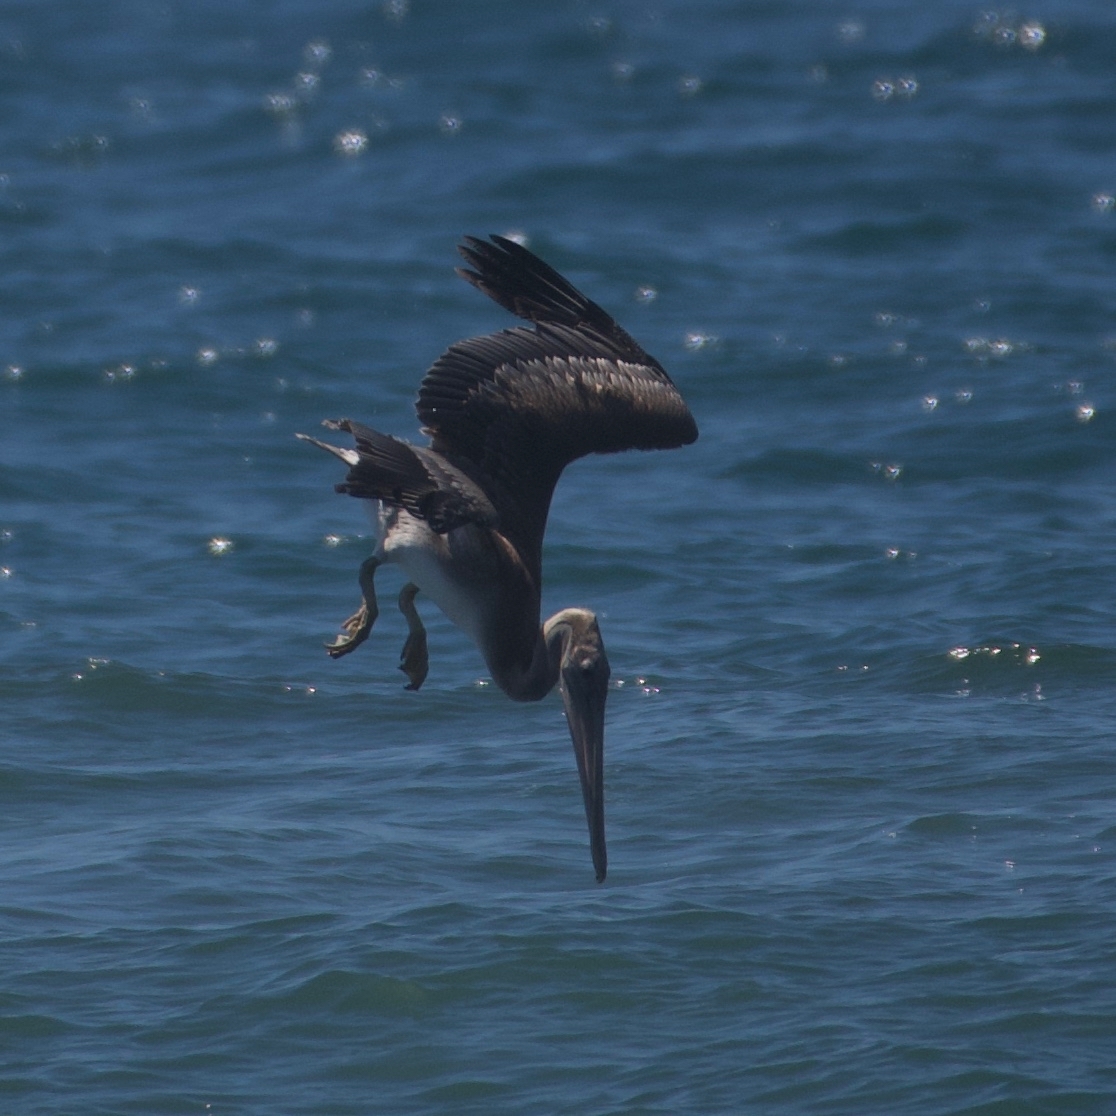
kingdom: Animalia
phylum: Chordata
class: Aves
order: Pelecaniformes
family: Pelecanidae
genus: Pelecanus
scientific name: Pelecanus occidentalis
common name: Brown pelican
